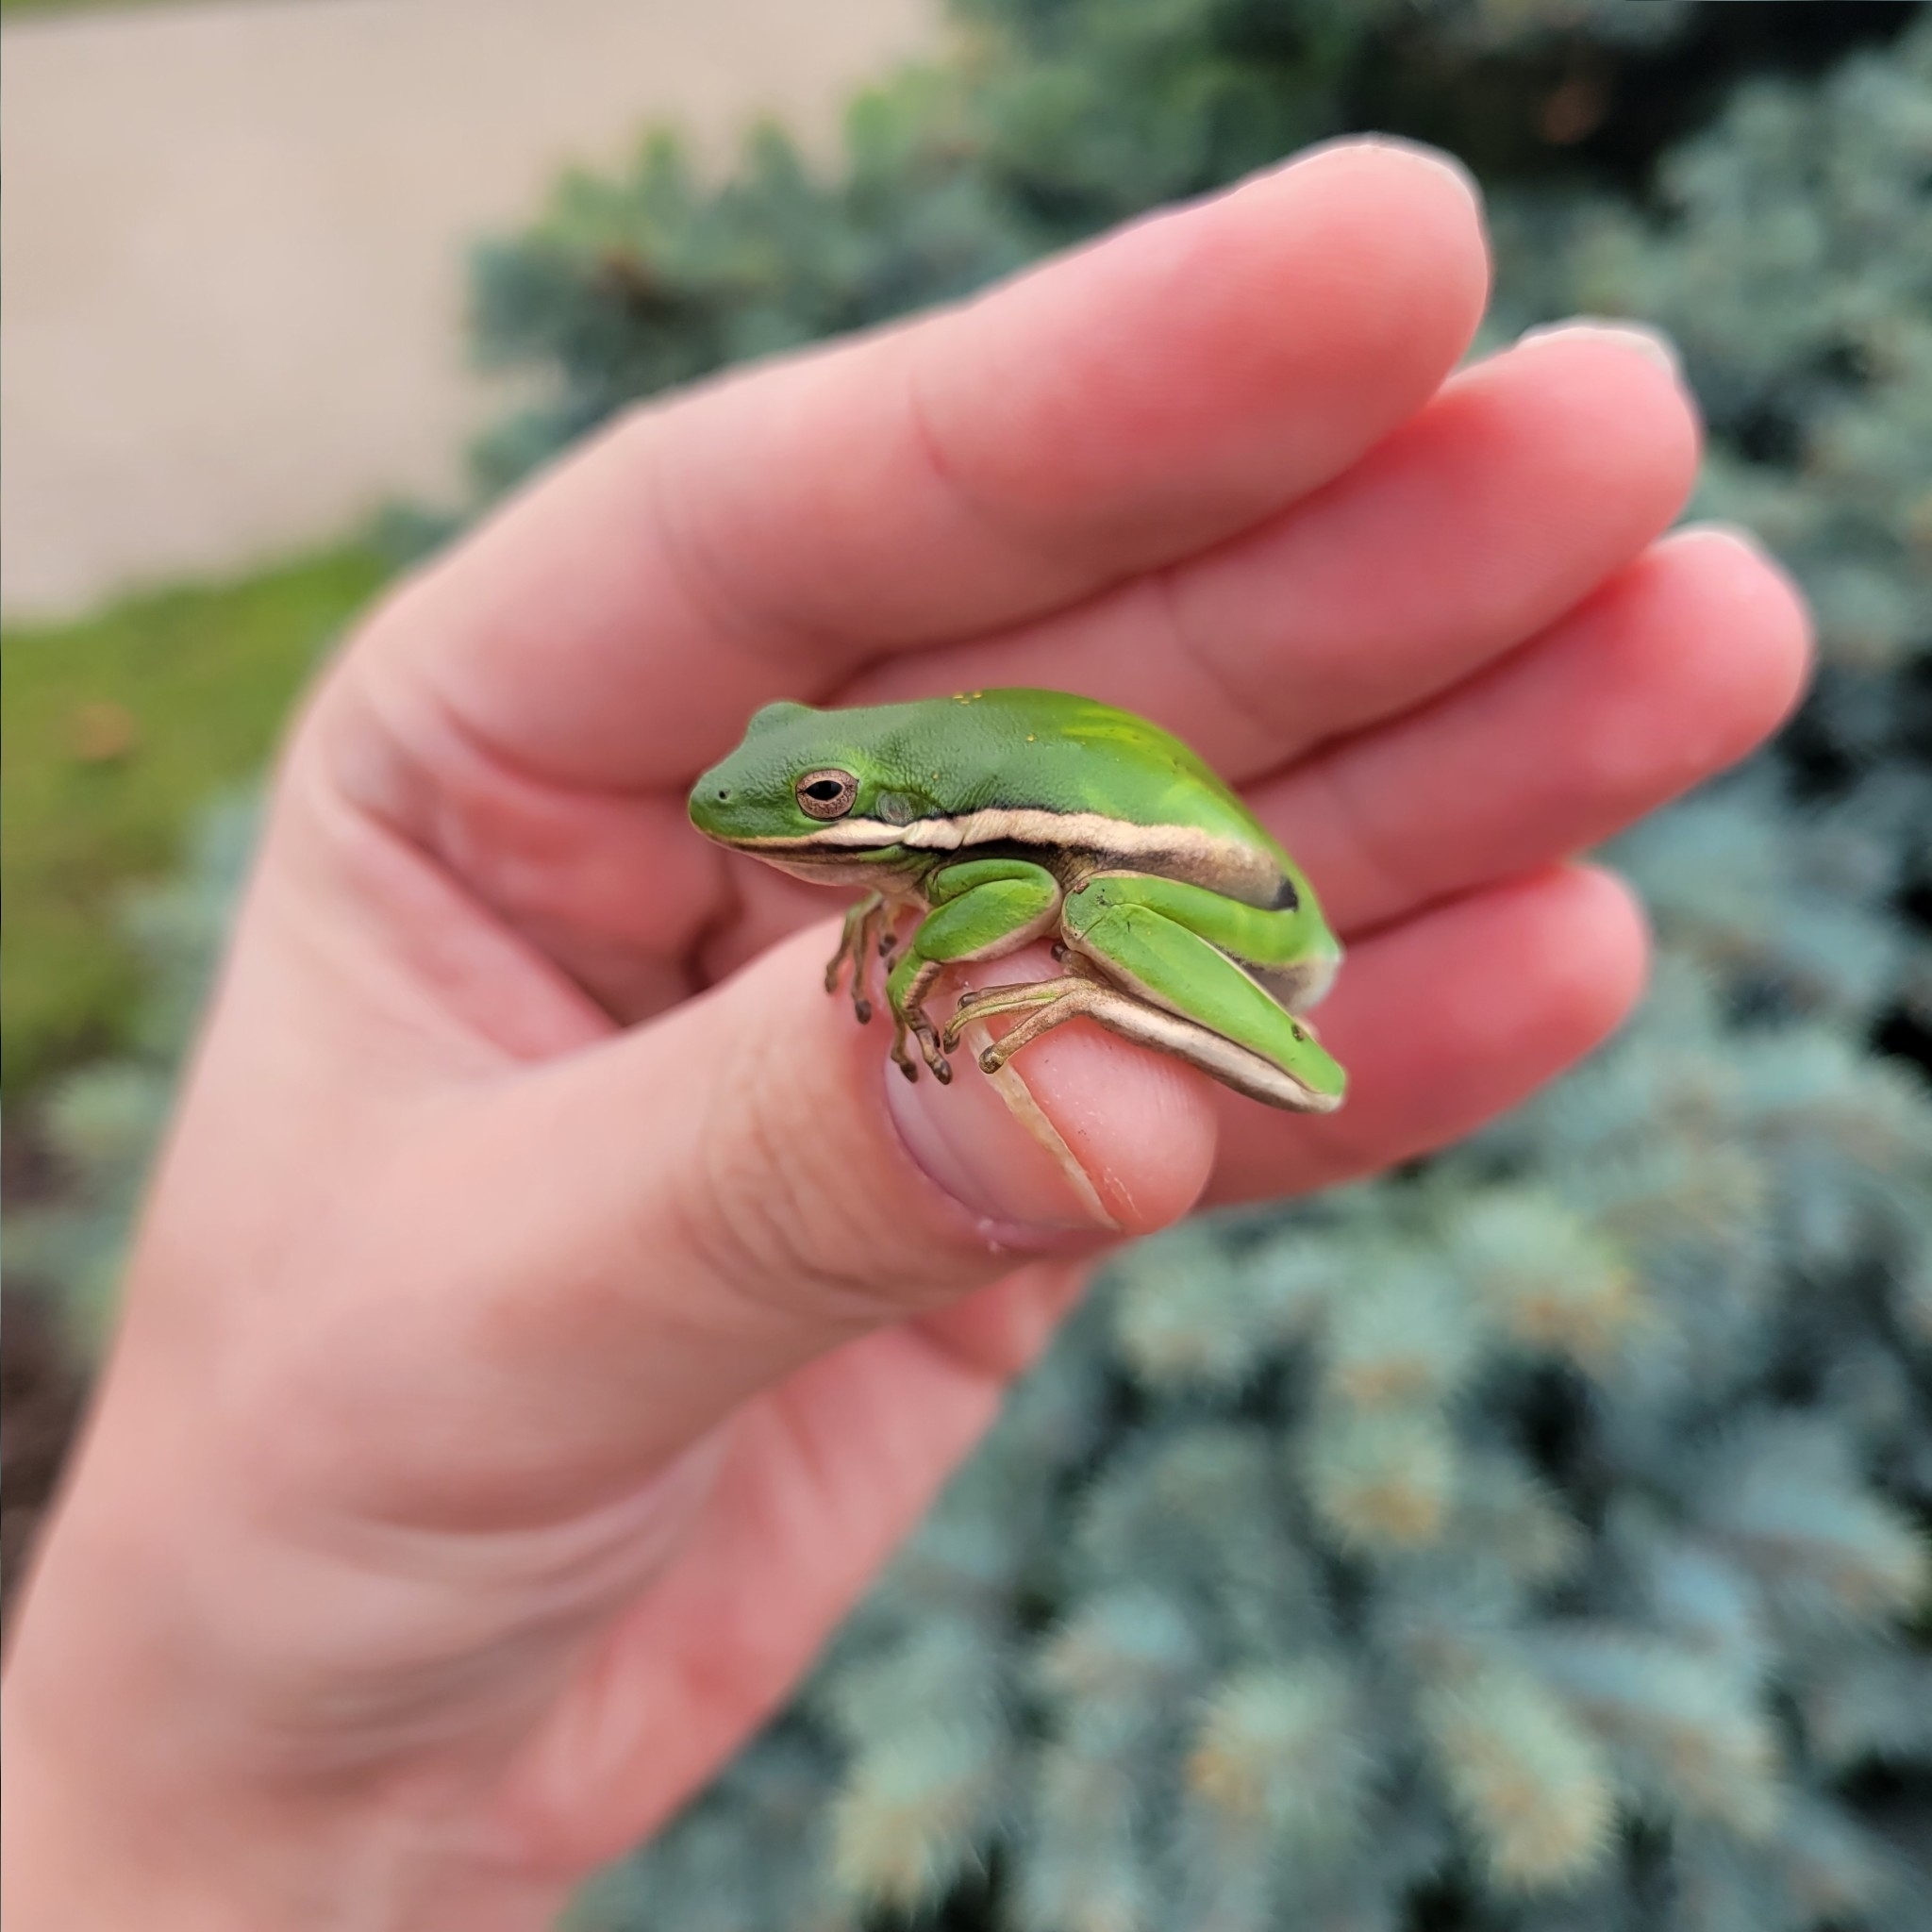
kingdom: Animalia
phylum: Chordata
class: Amphibia
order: Anura
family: Hylidae
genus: Dryophytes
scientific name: Dryophytes cinereus
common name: Green treefrog
